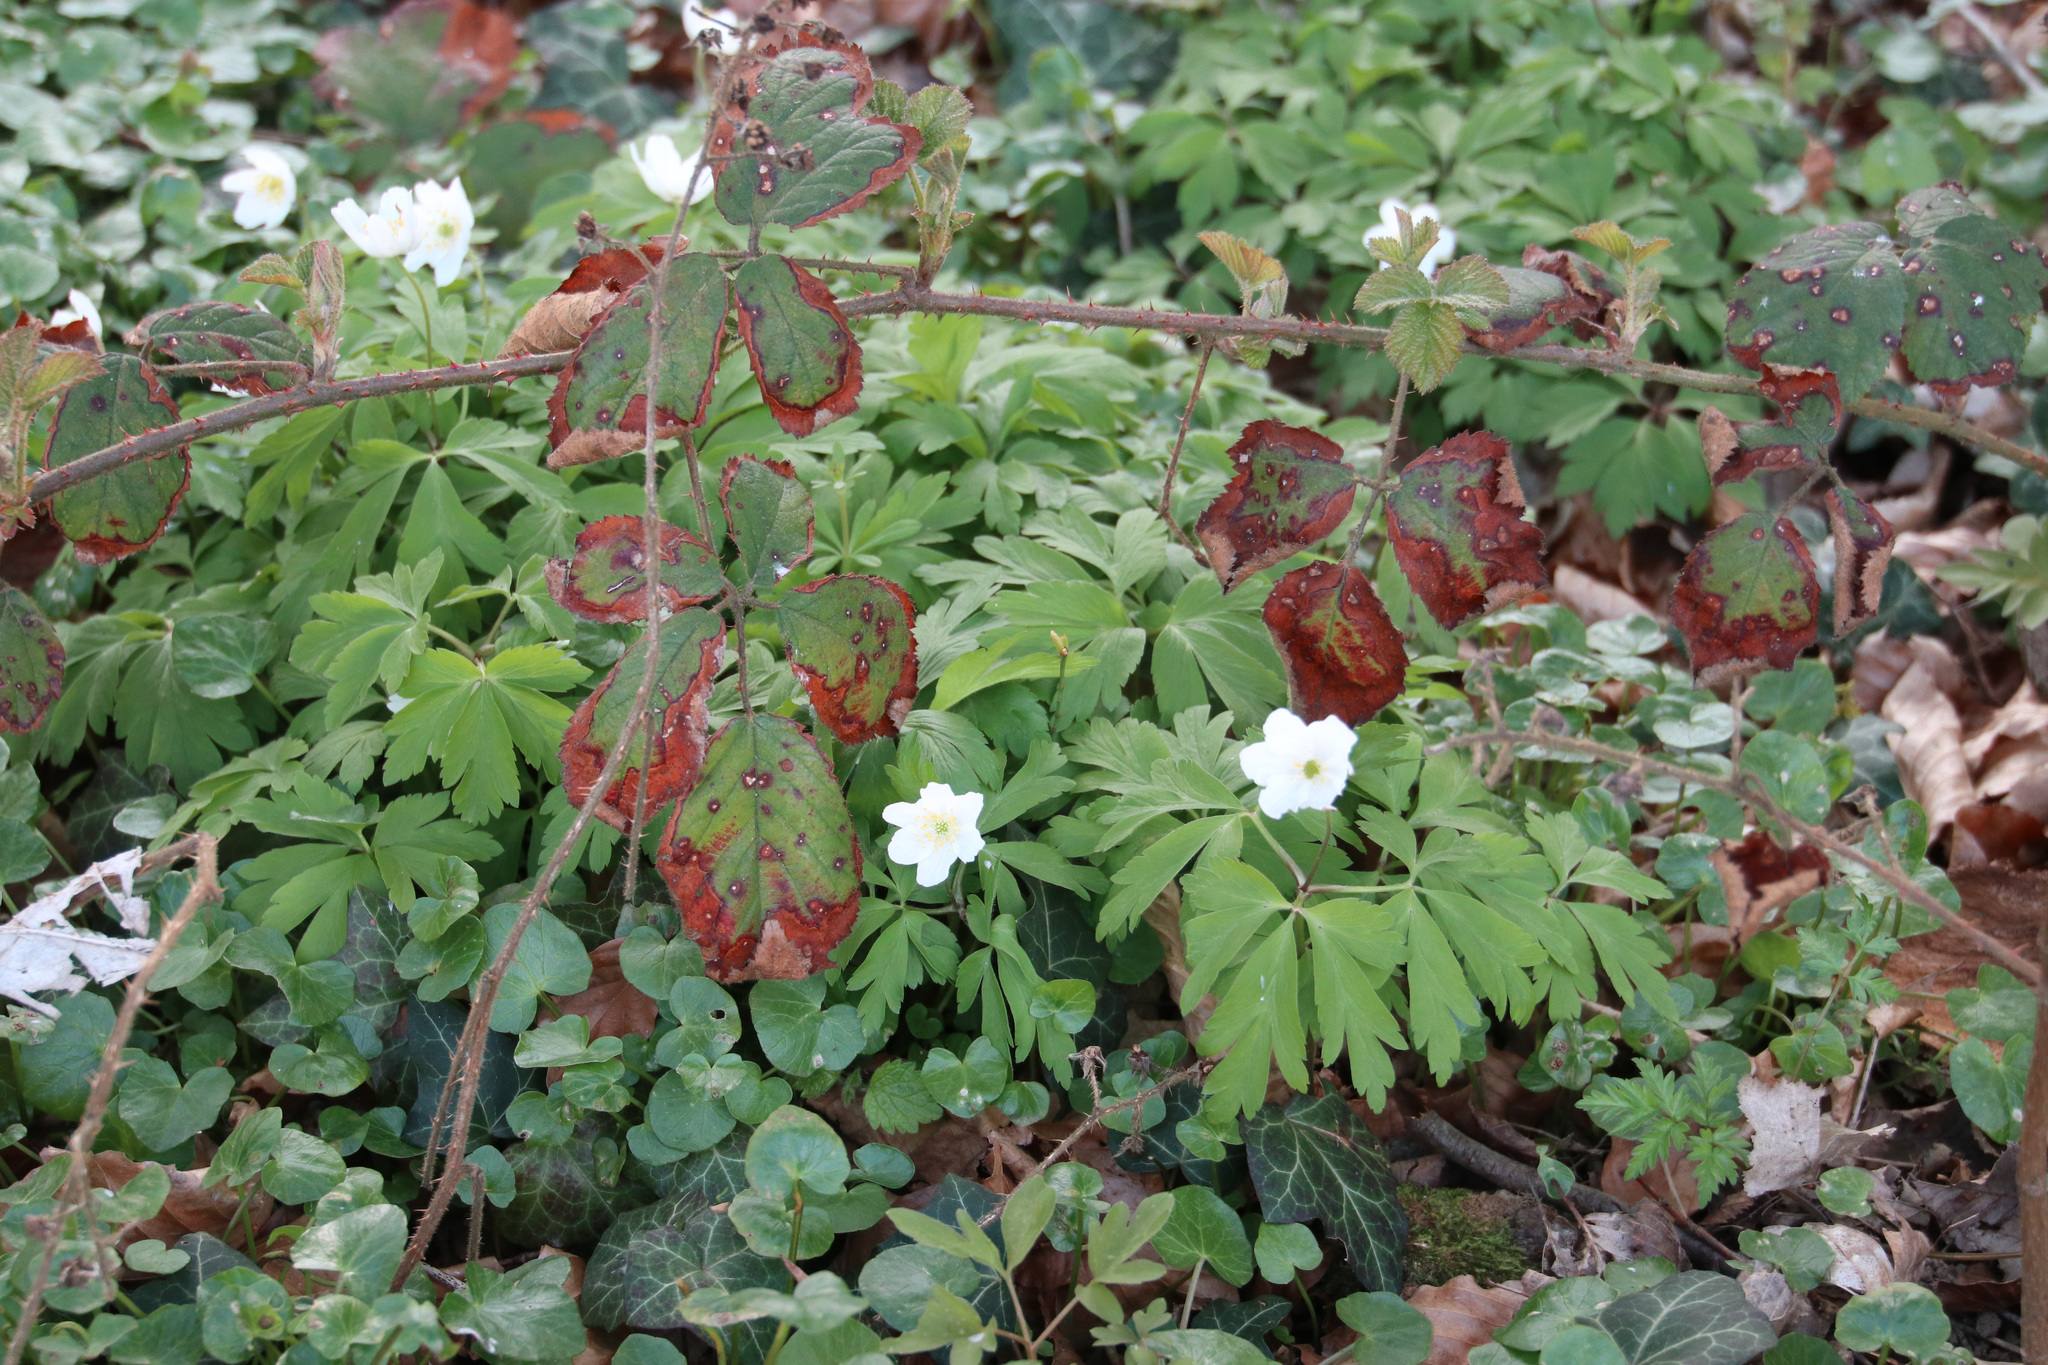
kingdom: Plantae
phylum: Tracheophyta
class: Magnoliopsida
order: Ranunculales
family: Ranunculaceae
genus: Anemone
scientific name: Anemone nemorosa
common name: Wood anemone
